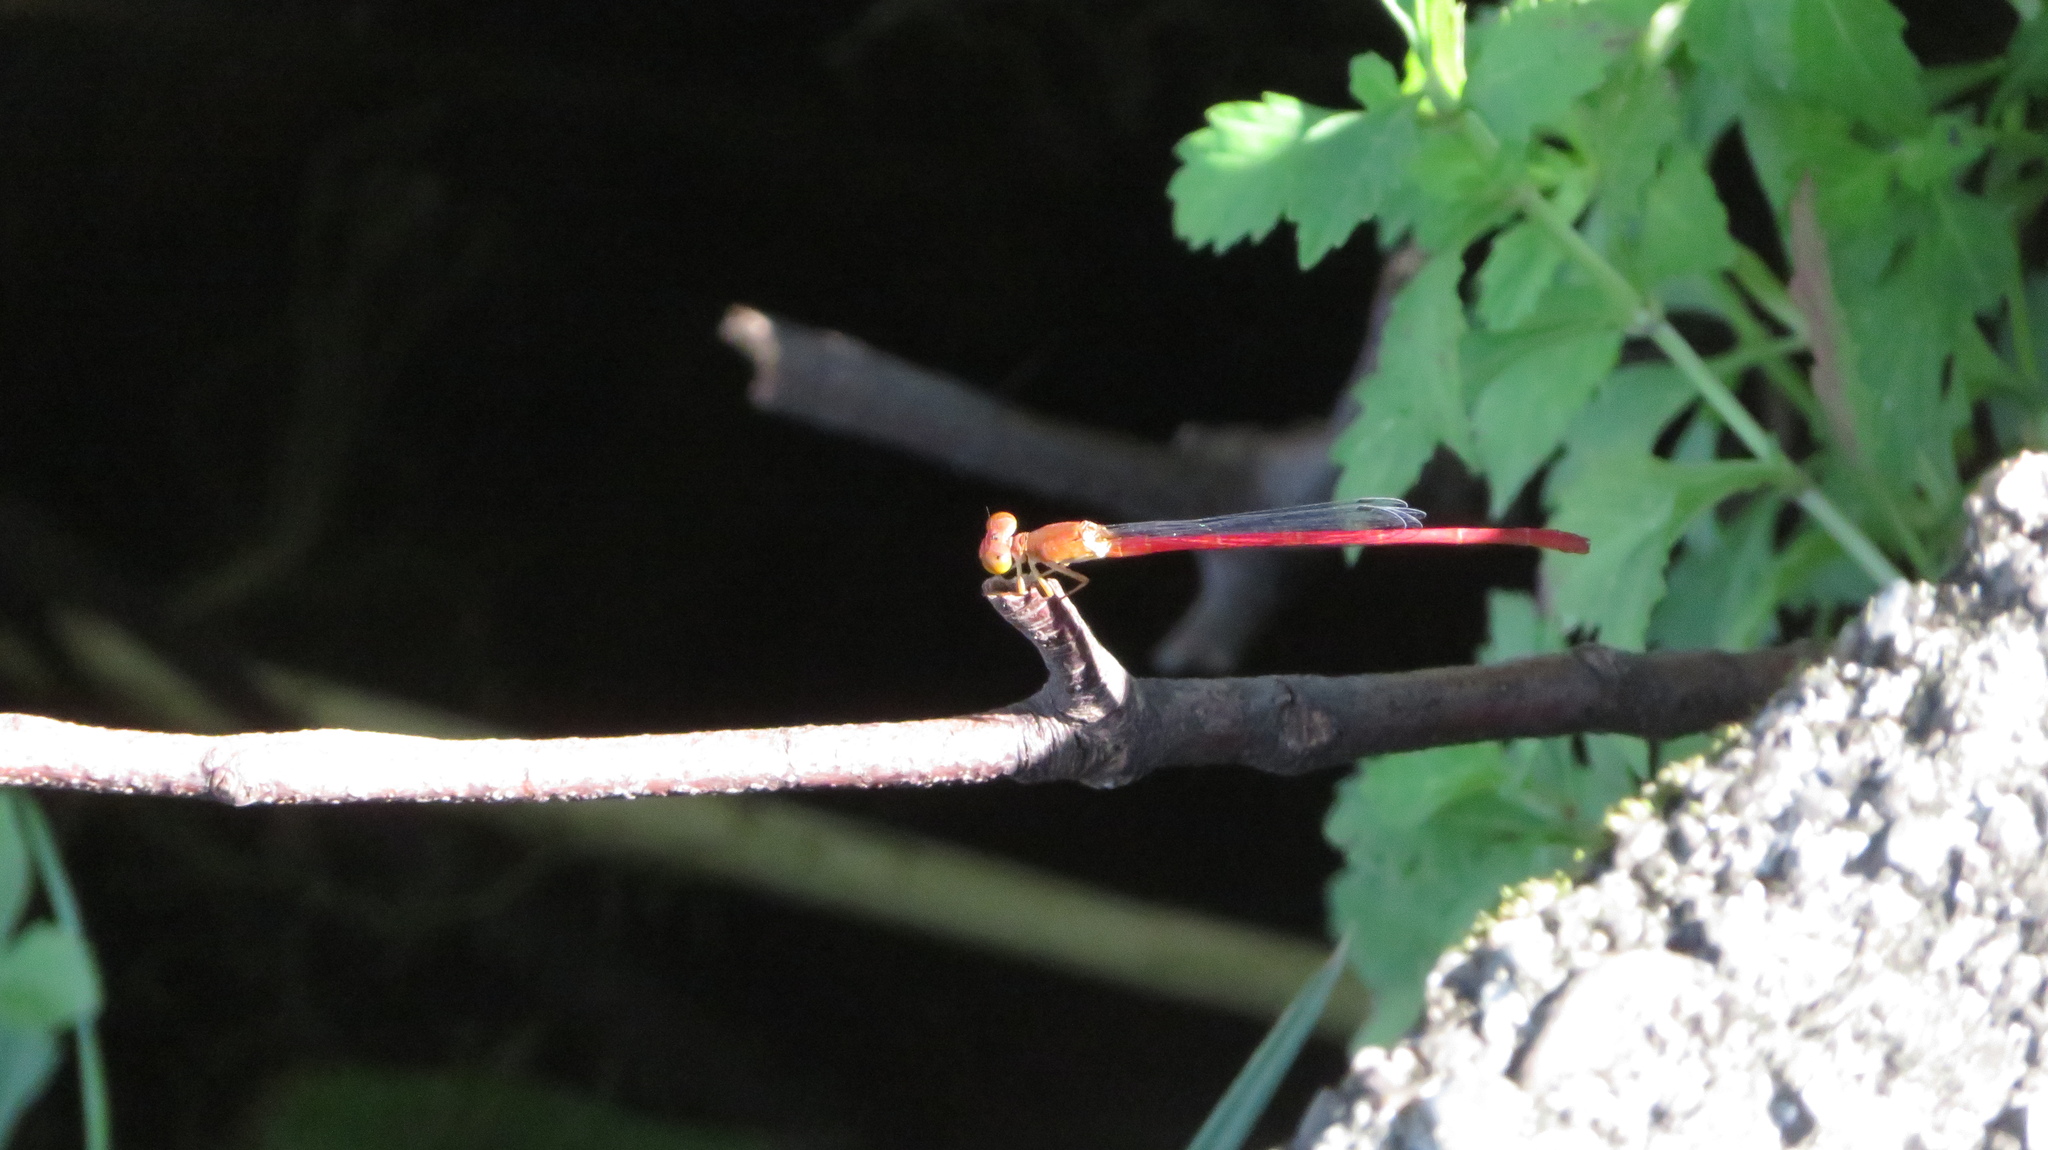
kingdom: Animalia
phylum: Arthropoda
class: Insecta
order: Odonata
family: Coenagrionidae
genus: Ceriagrion
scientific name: Ceriagrion nipponicum
